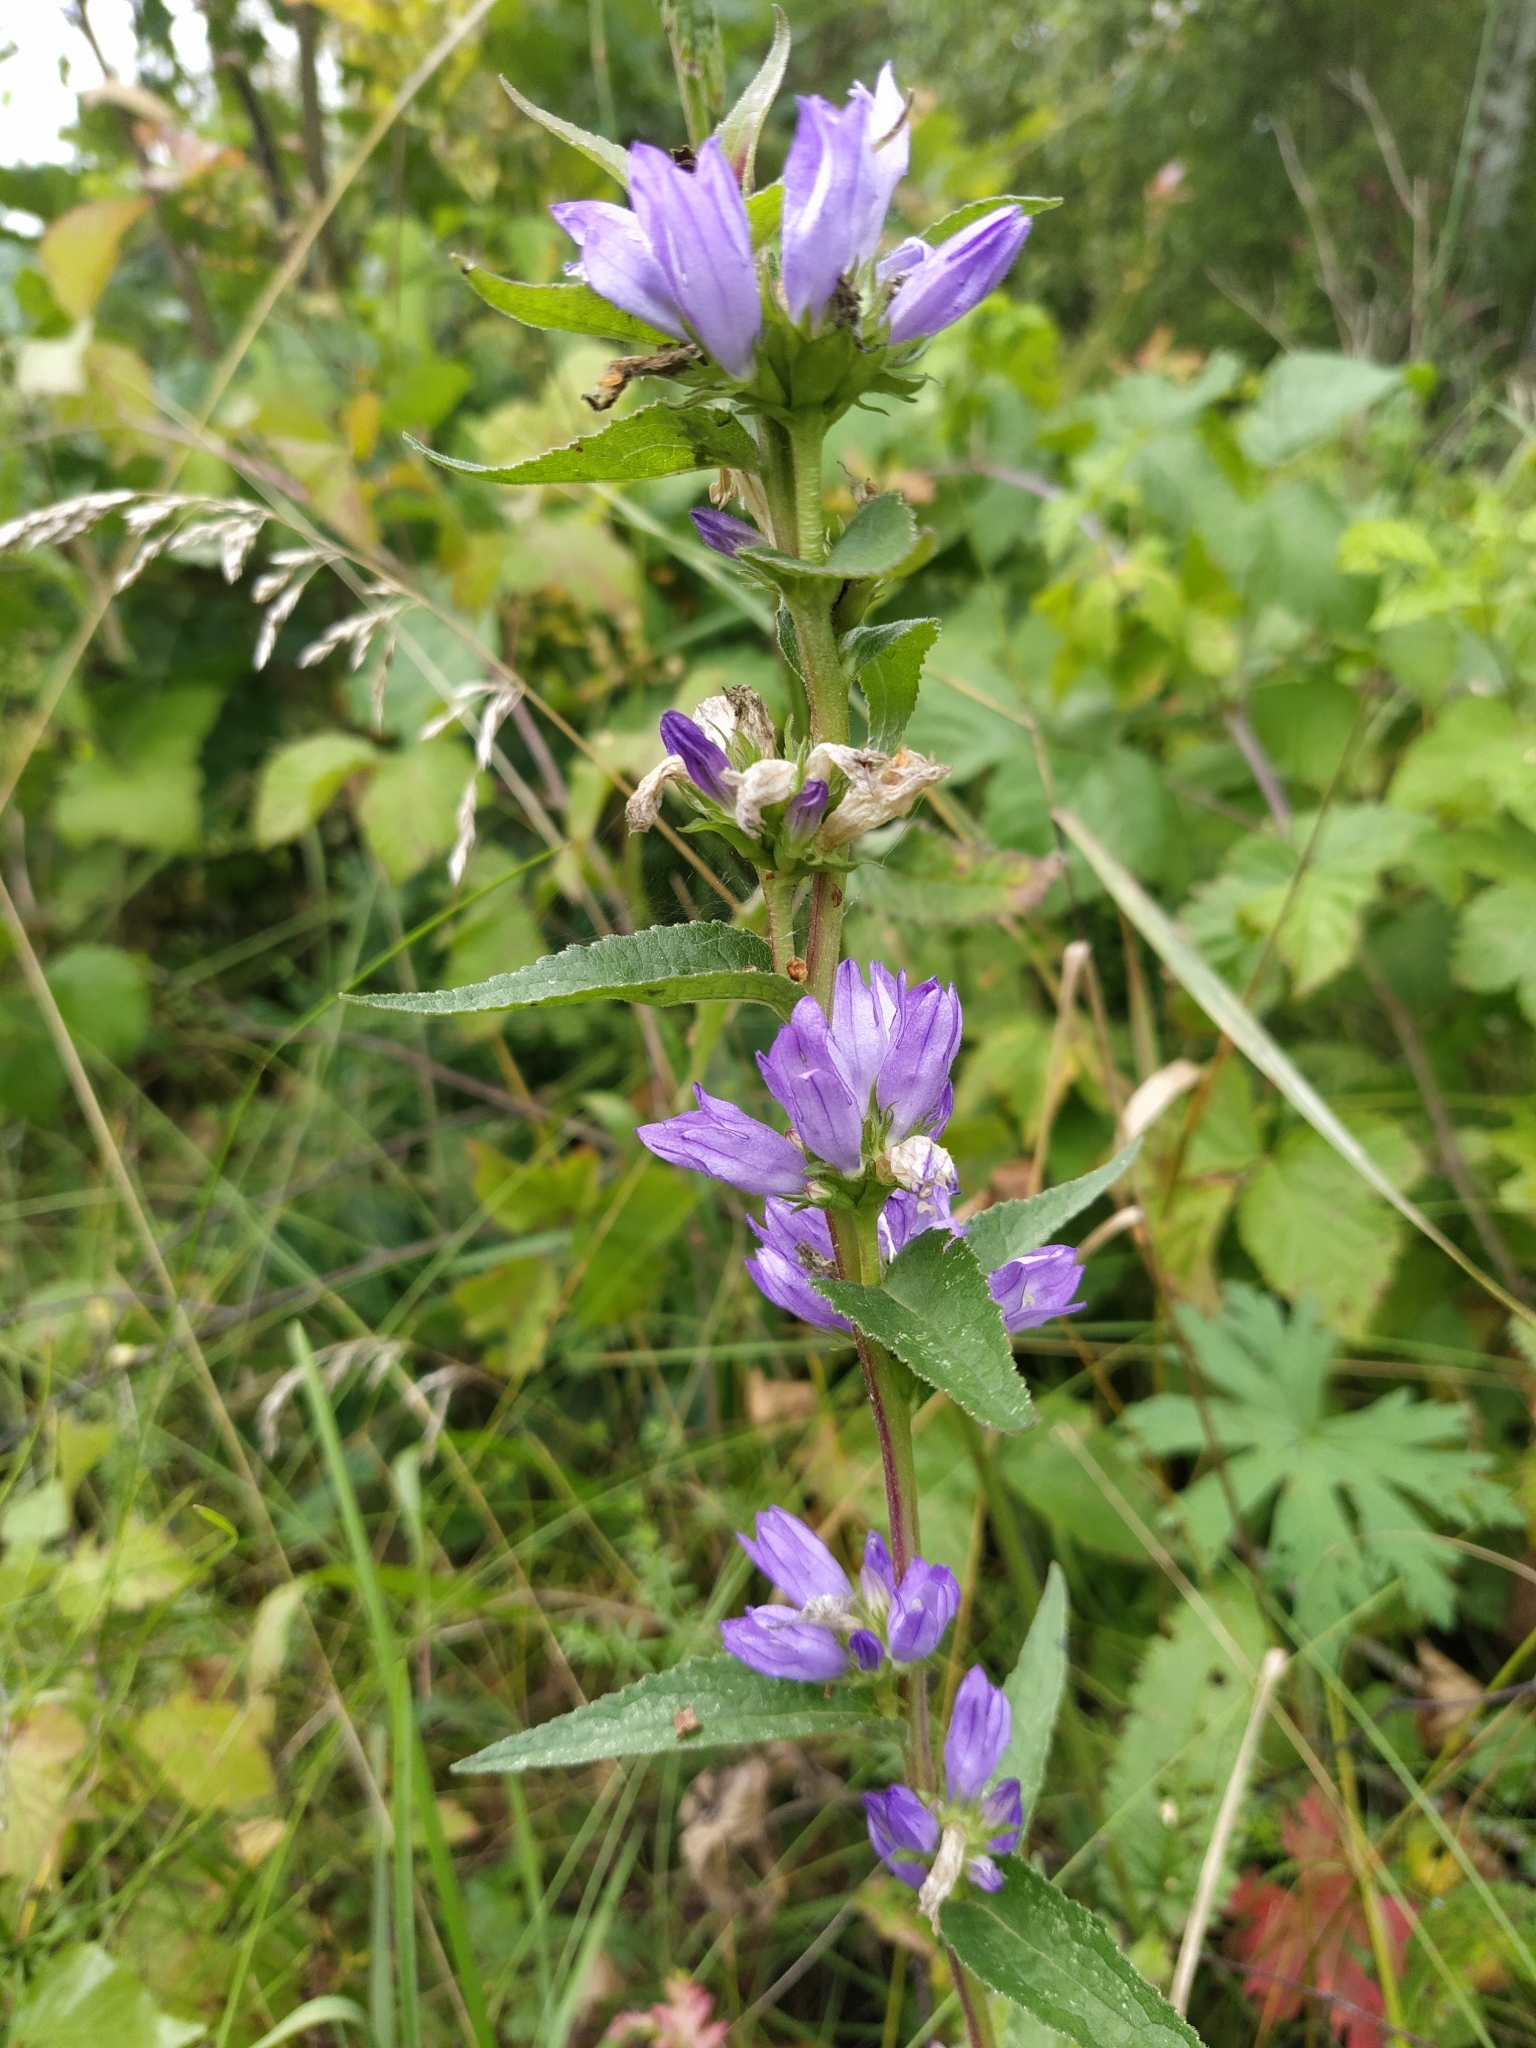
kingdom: Plantae
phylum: Tracheophyta
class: Magnoliopsida
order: Asterales
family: Campanulaceae
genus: Campanula
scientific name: Campanula glomerata
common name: Clustered bellflower
